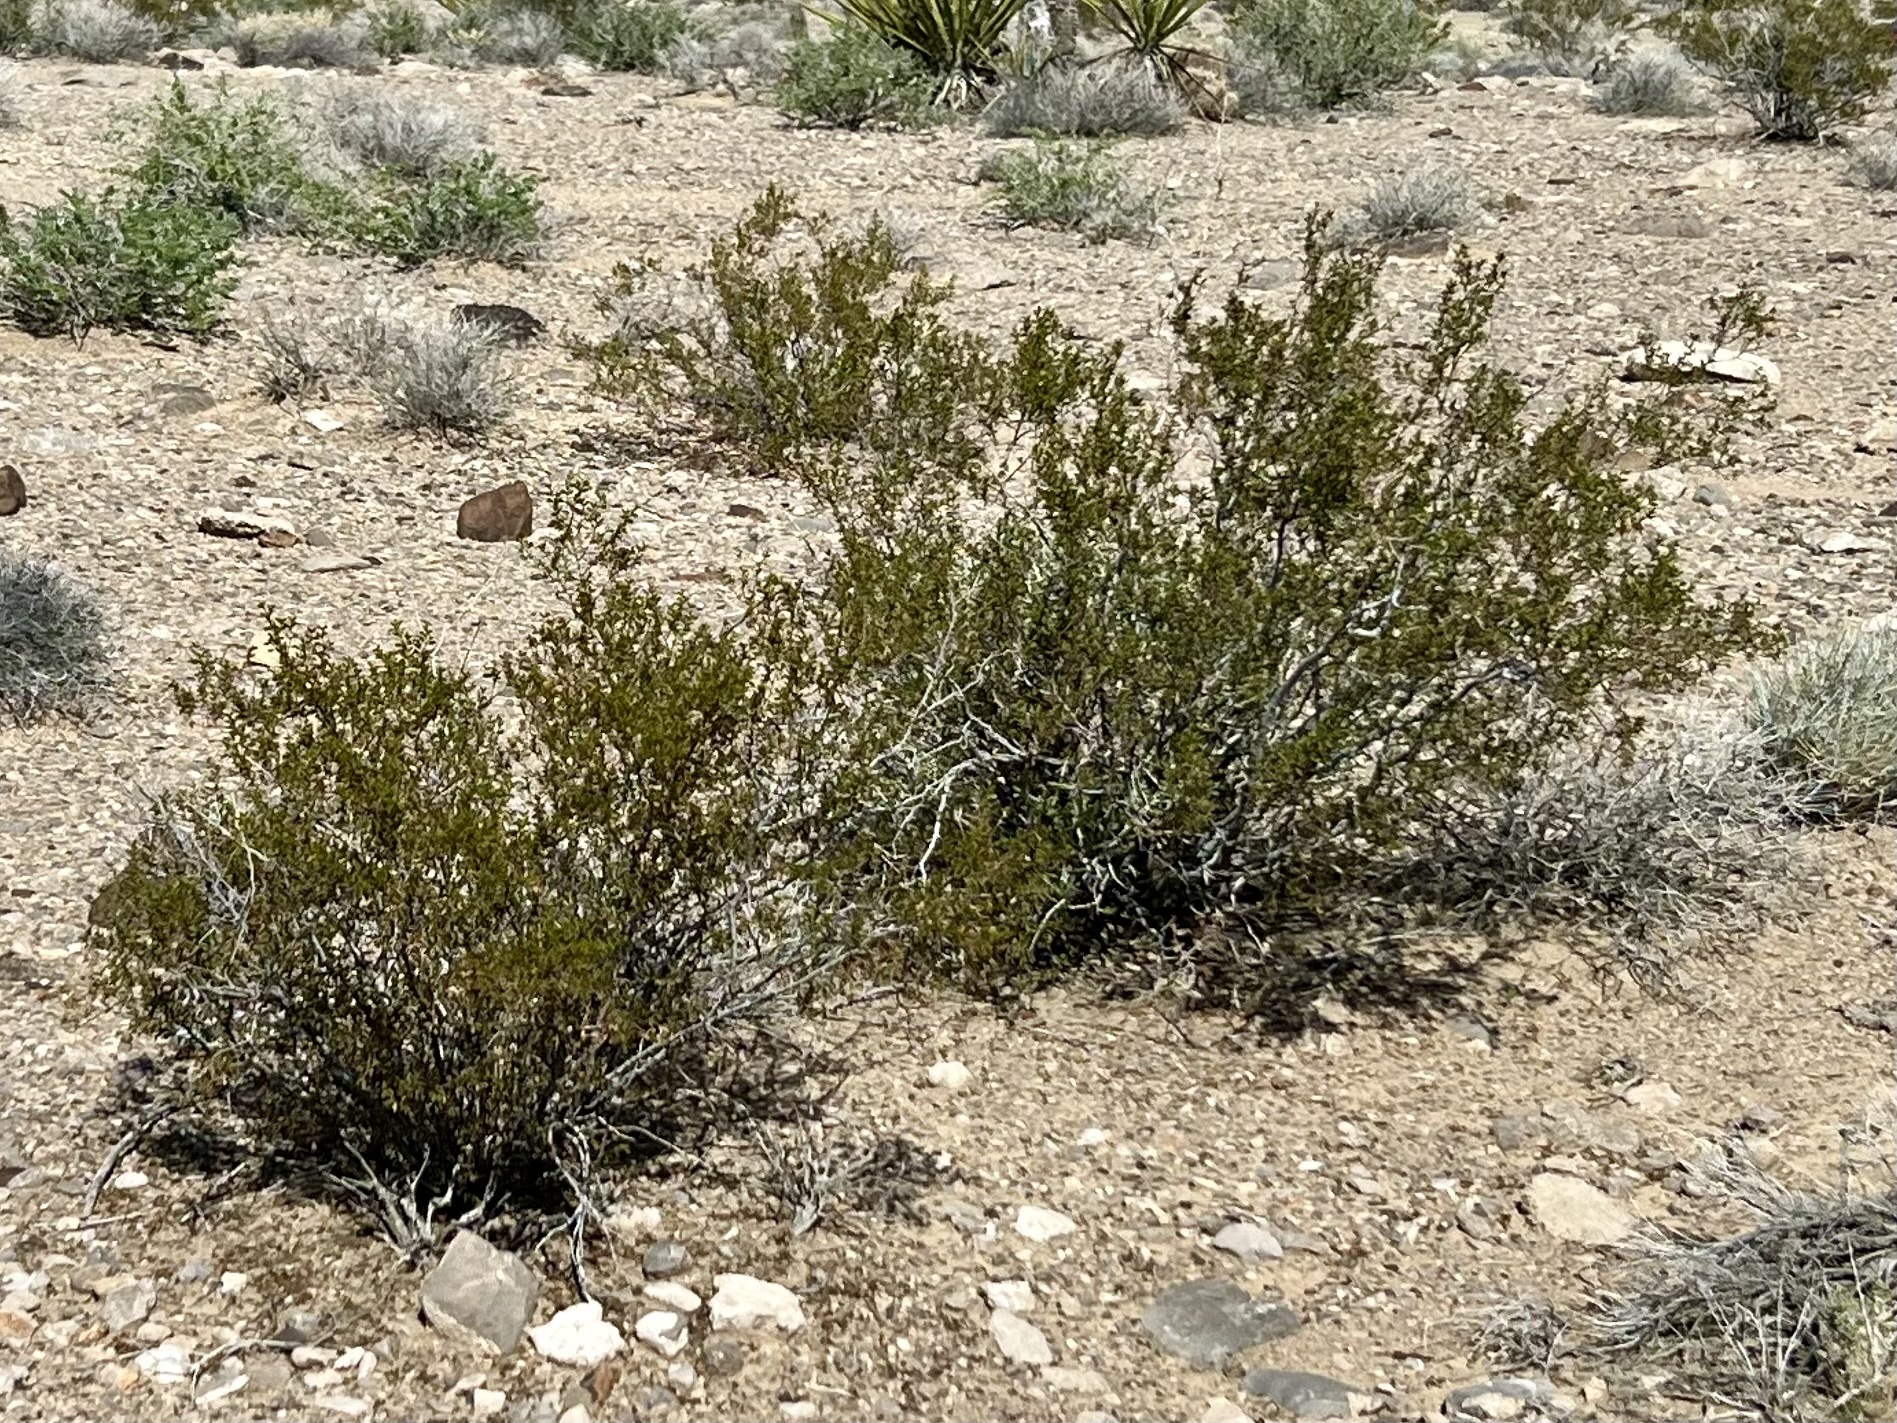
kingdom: Plantae
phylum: Tracheophyta
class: Magnoliopsida
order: Zygophyllales
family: Zygophyllaceae
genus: Larrea
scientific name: Larrea tridentata
